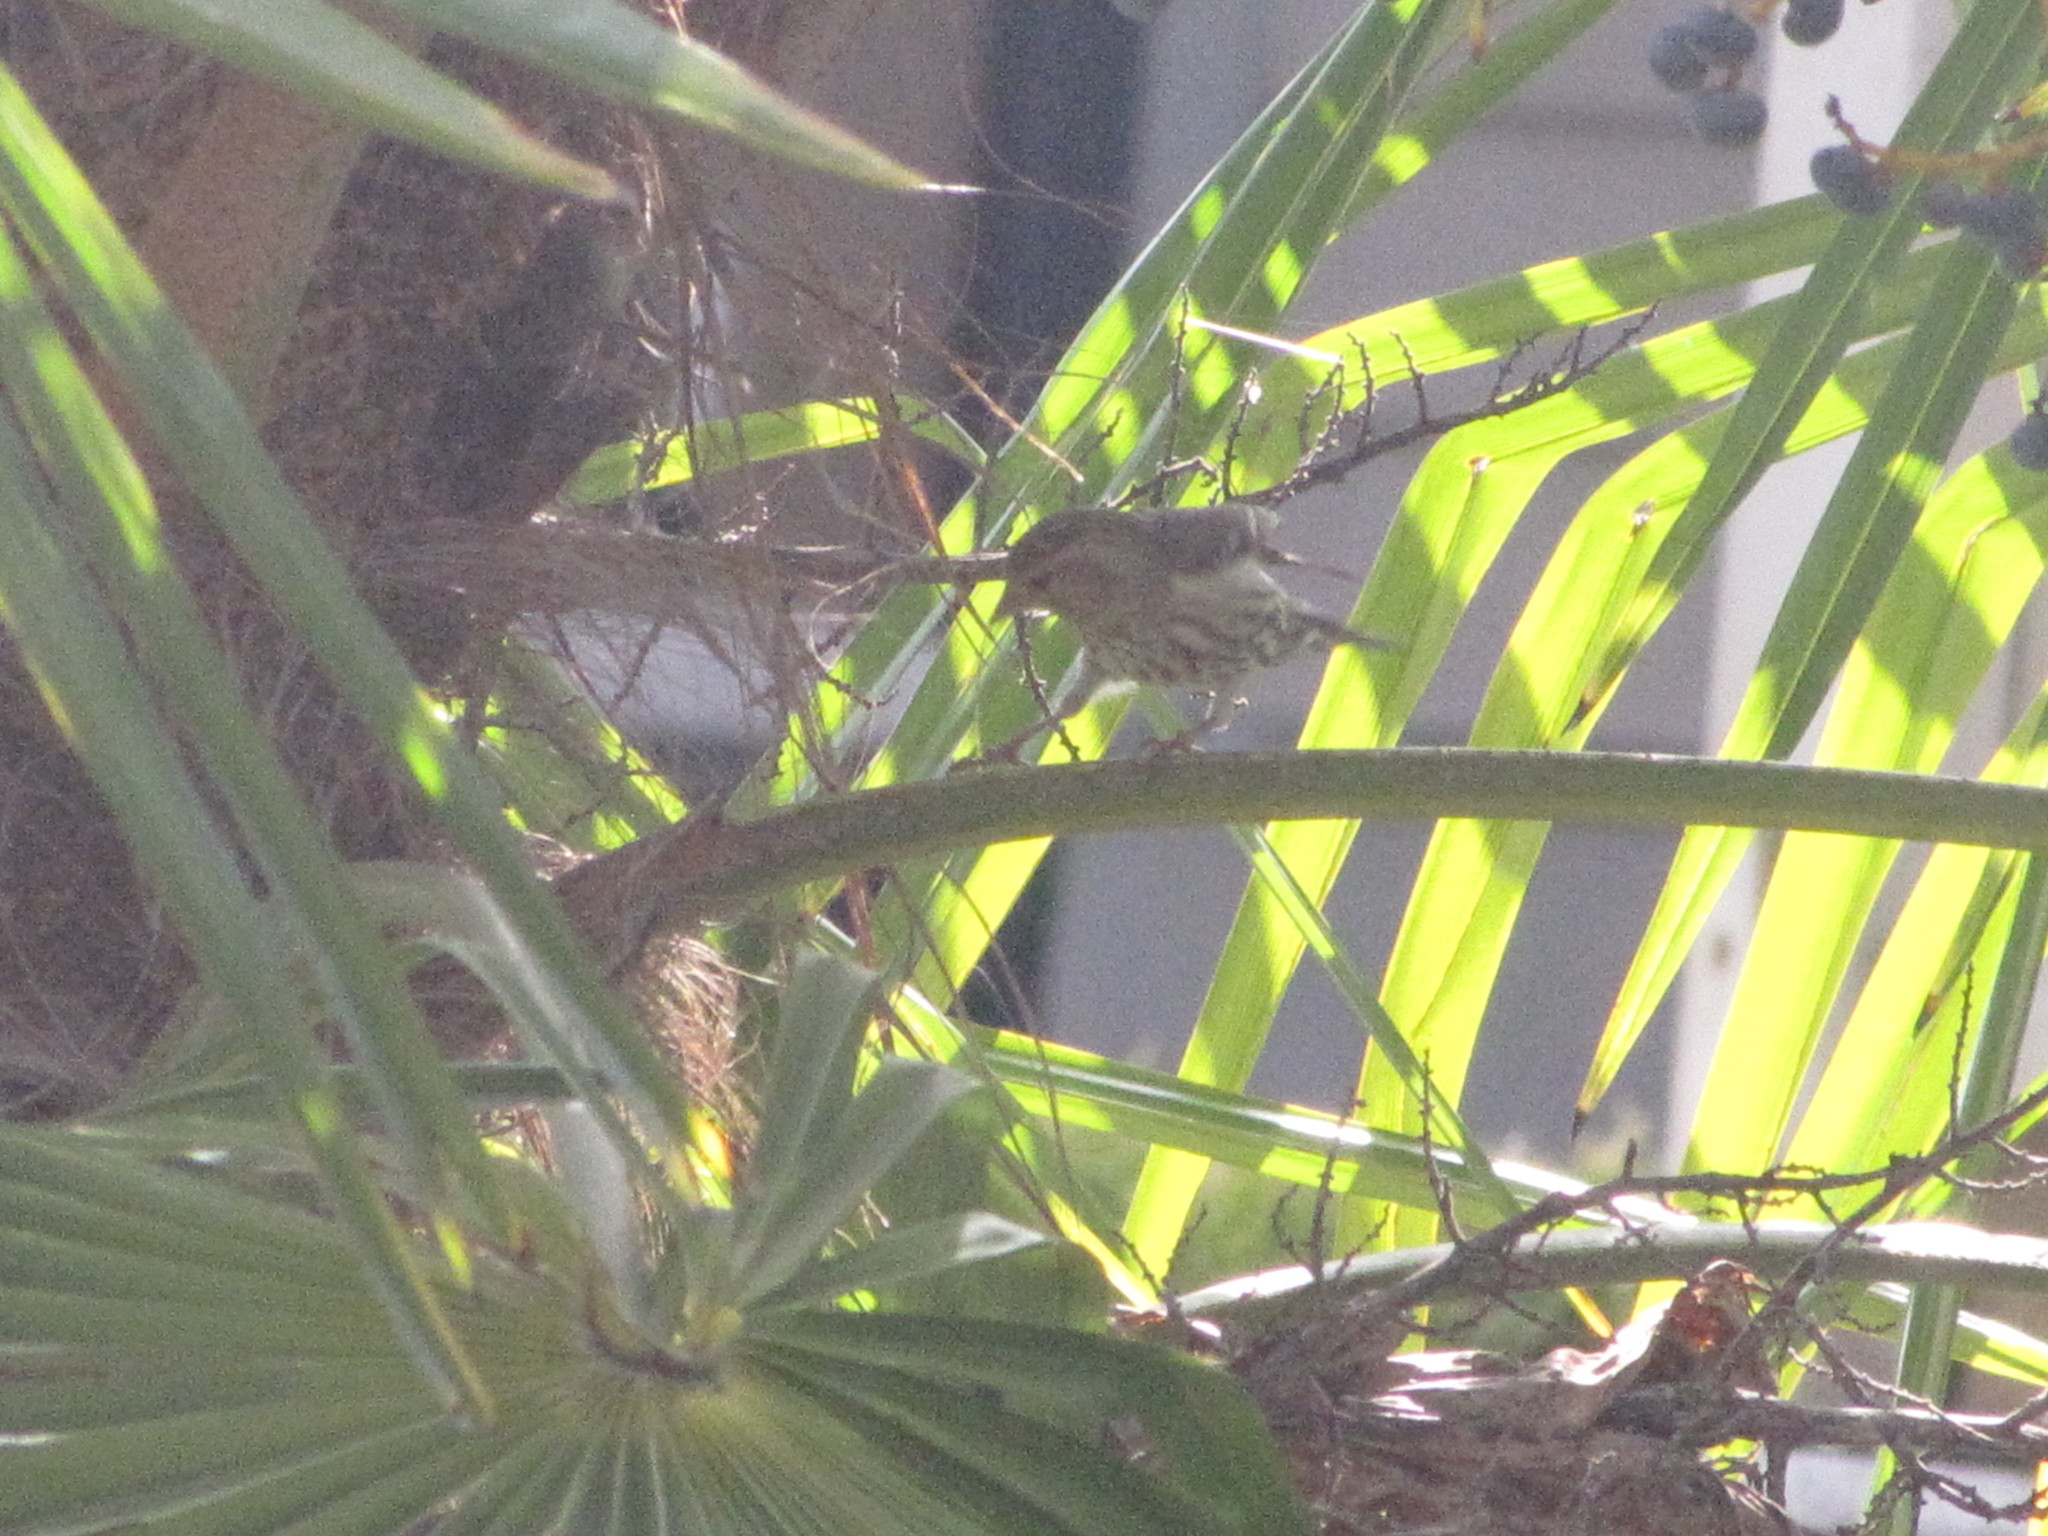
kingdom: Animalia
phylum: Chordata
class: Aves
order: Passeriformes
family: Fringillidae
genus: Spinus
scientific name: Spinus pinus
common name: Pine siskin
